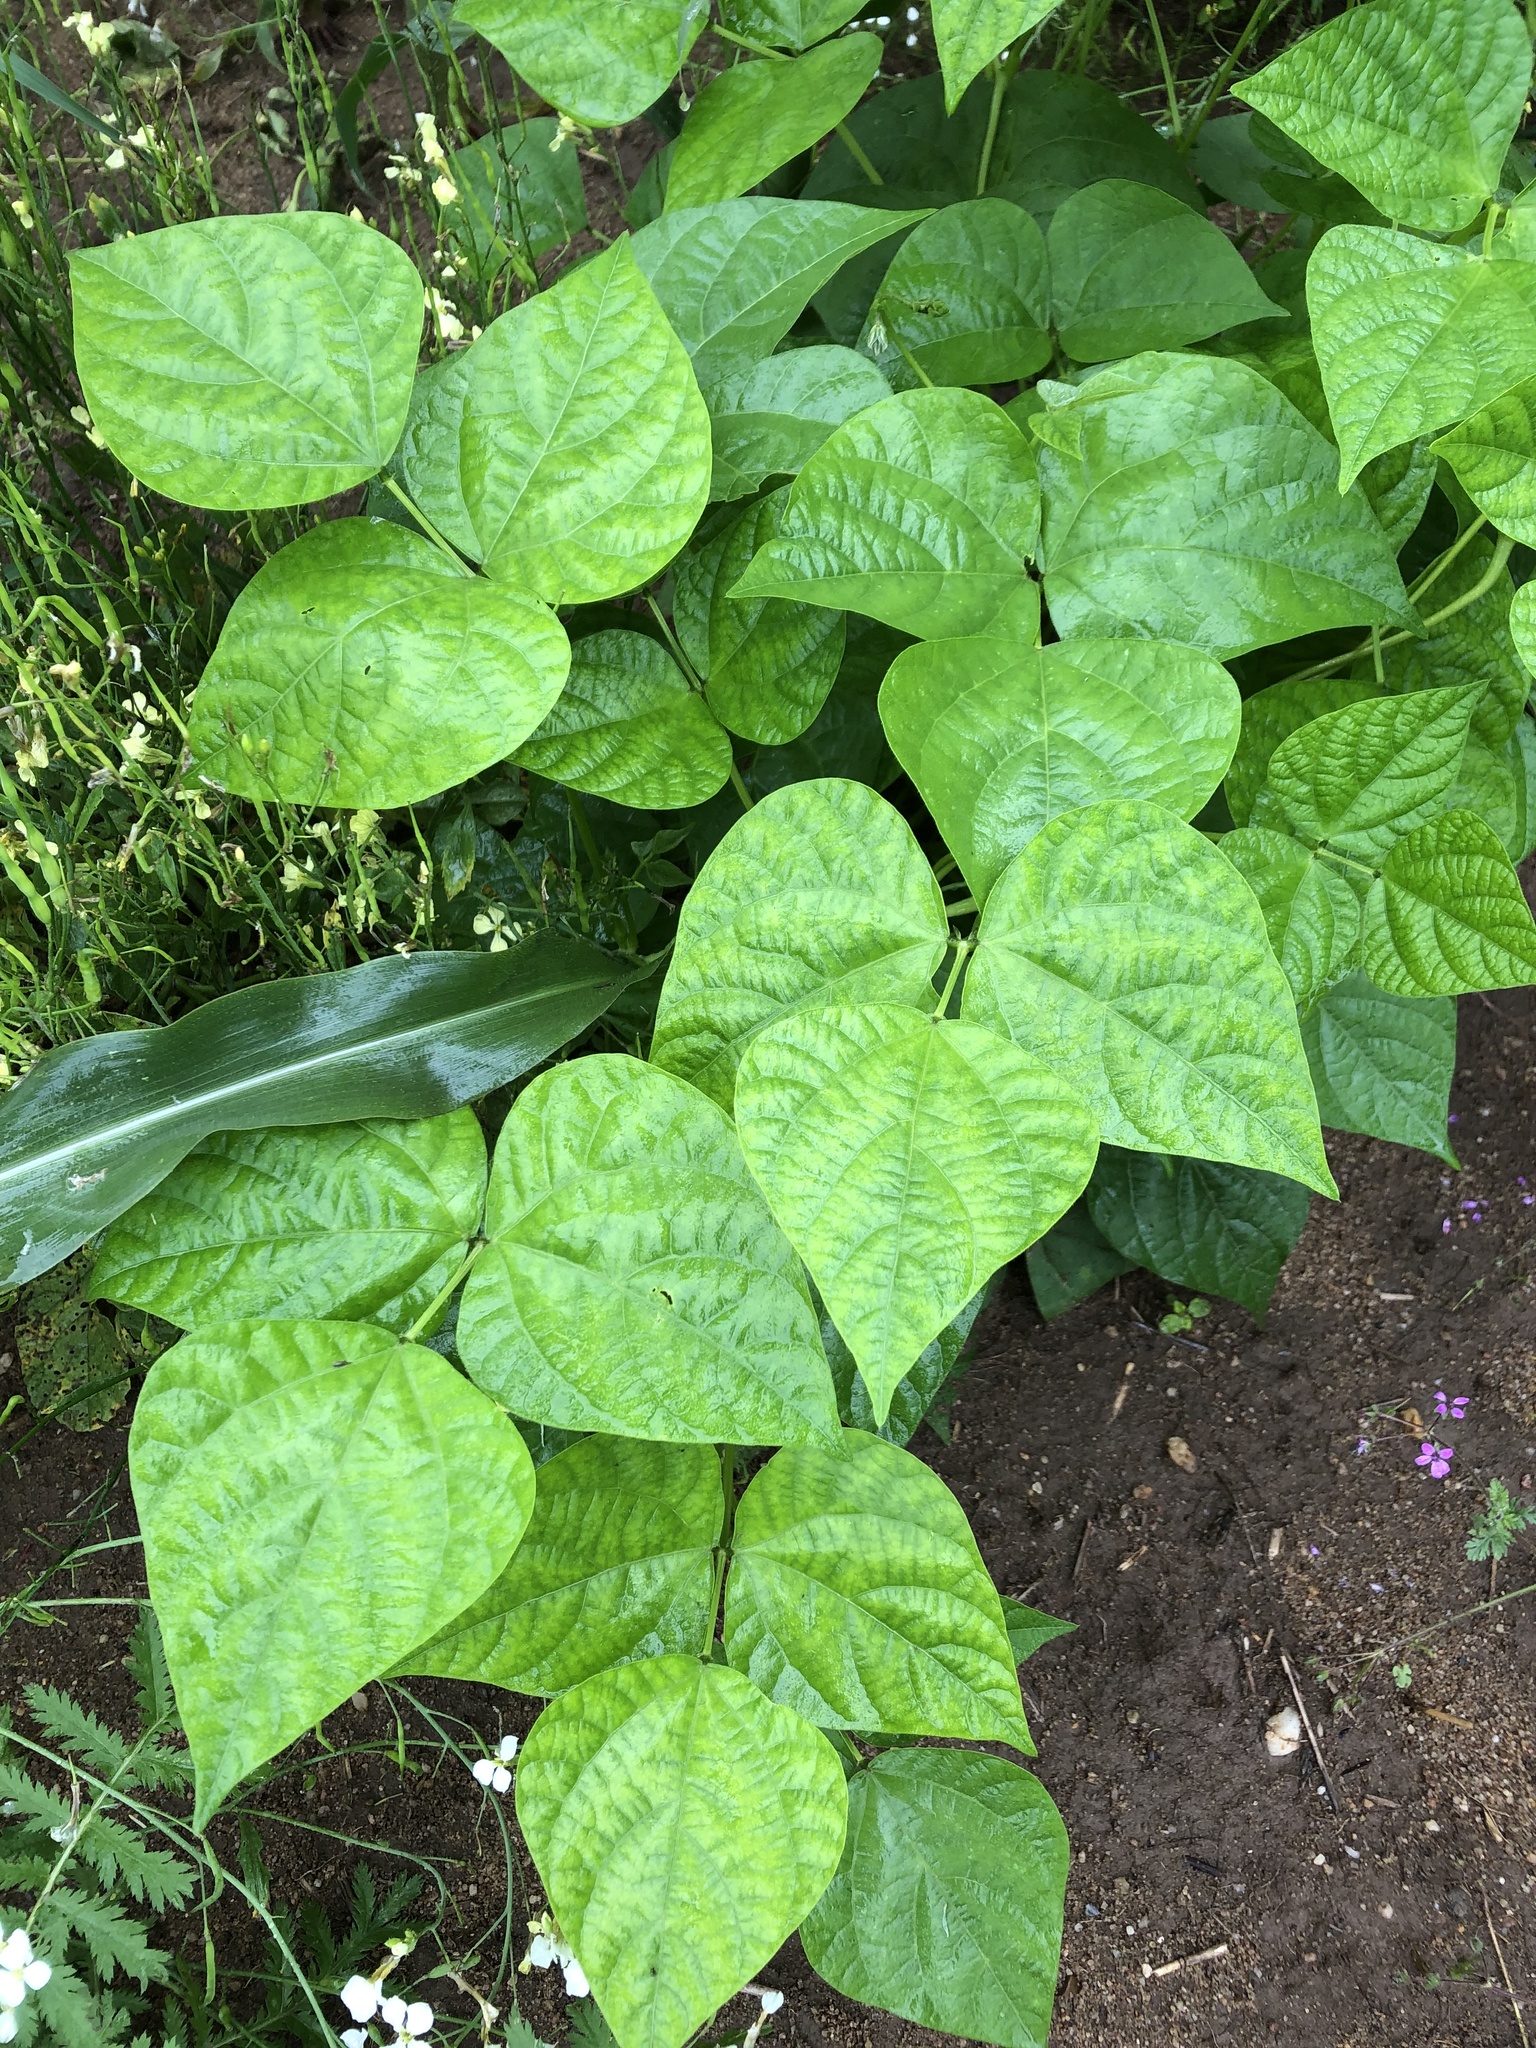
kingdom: Plantae
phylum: Tracheophyta
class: Magnoliopsida
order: Fabales
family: Fabaceae
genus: Phaseolus
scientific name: Phaseolus vulgaris
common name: Bean
